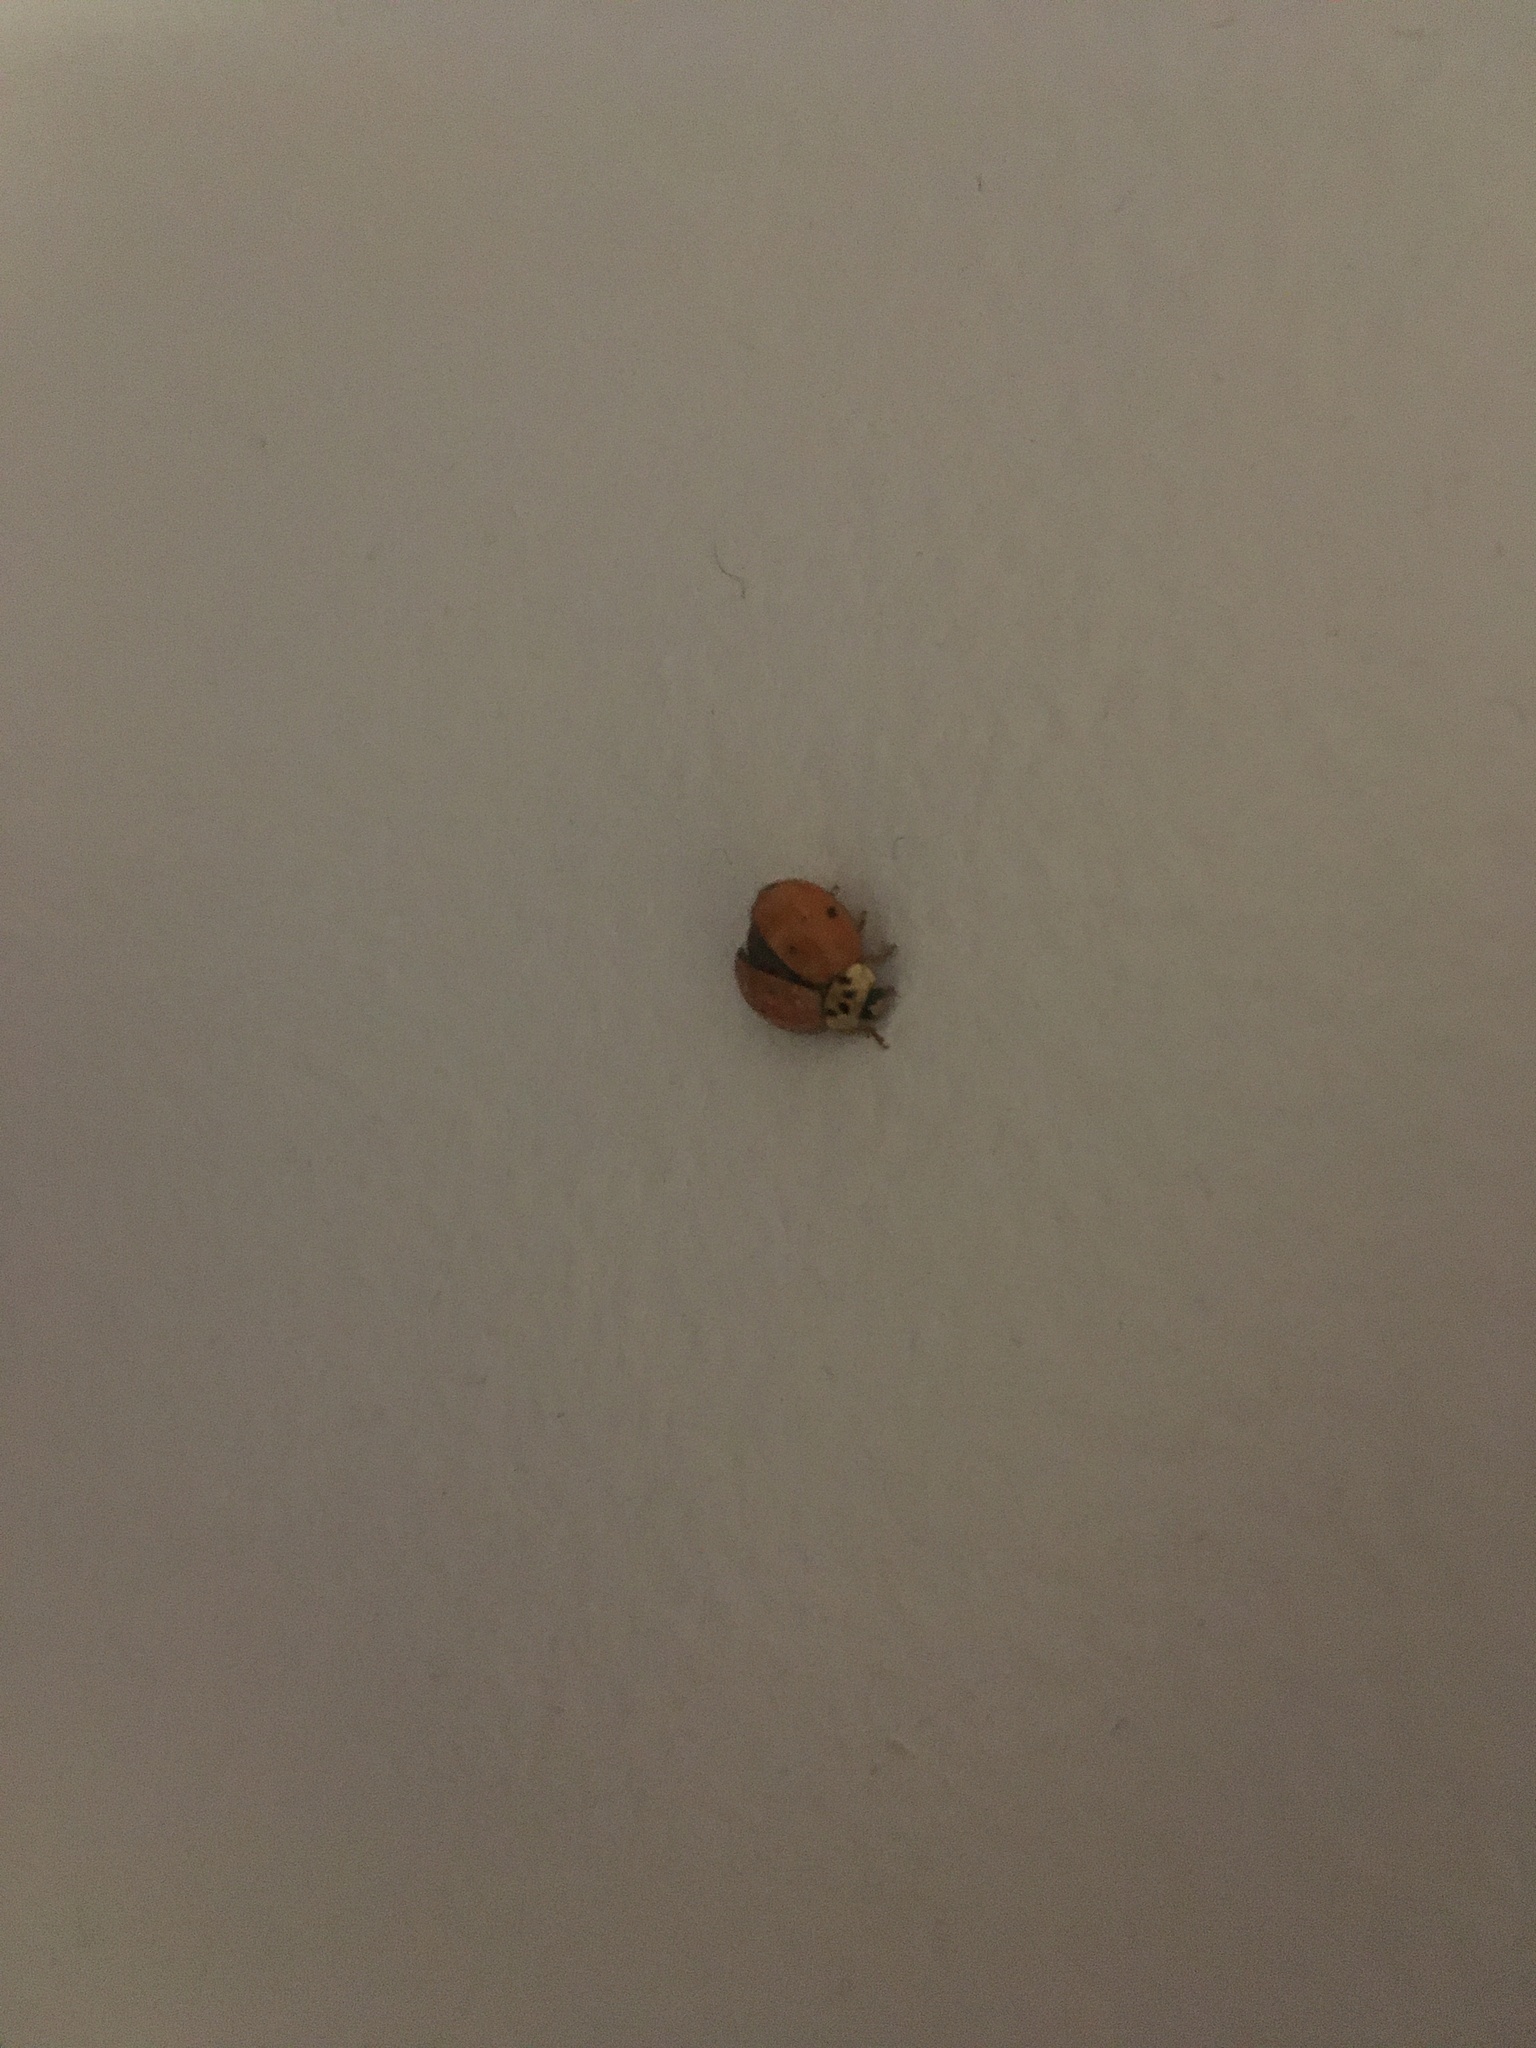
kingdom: Animalia
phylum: Arthropoda
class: Insecta
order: Coleoptera
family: Coccinellidae
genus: Harmonia
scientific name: Harmonia axyridis
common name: Harlequin ladybird
